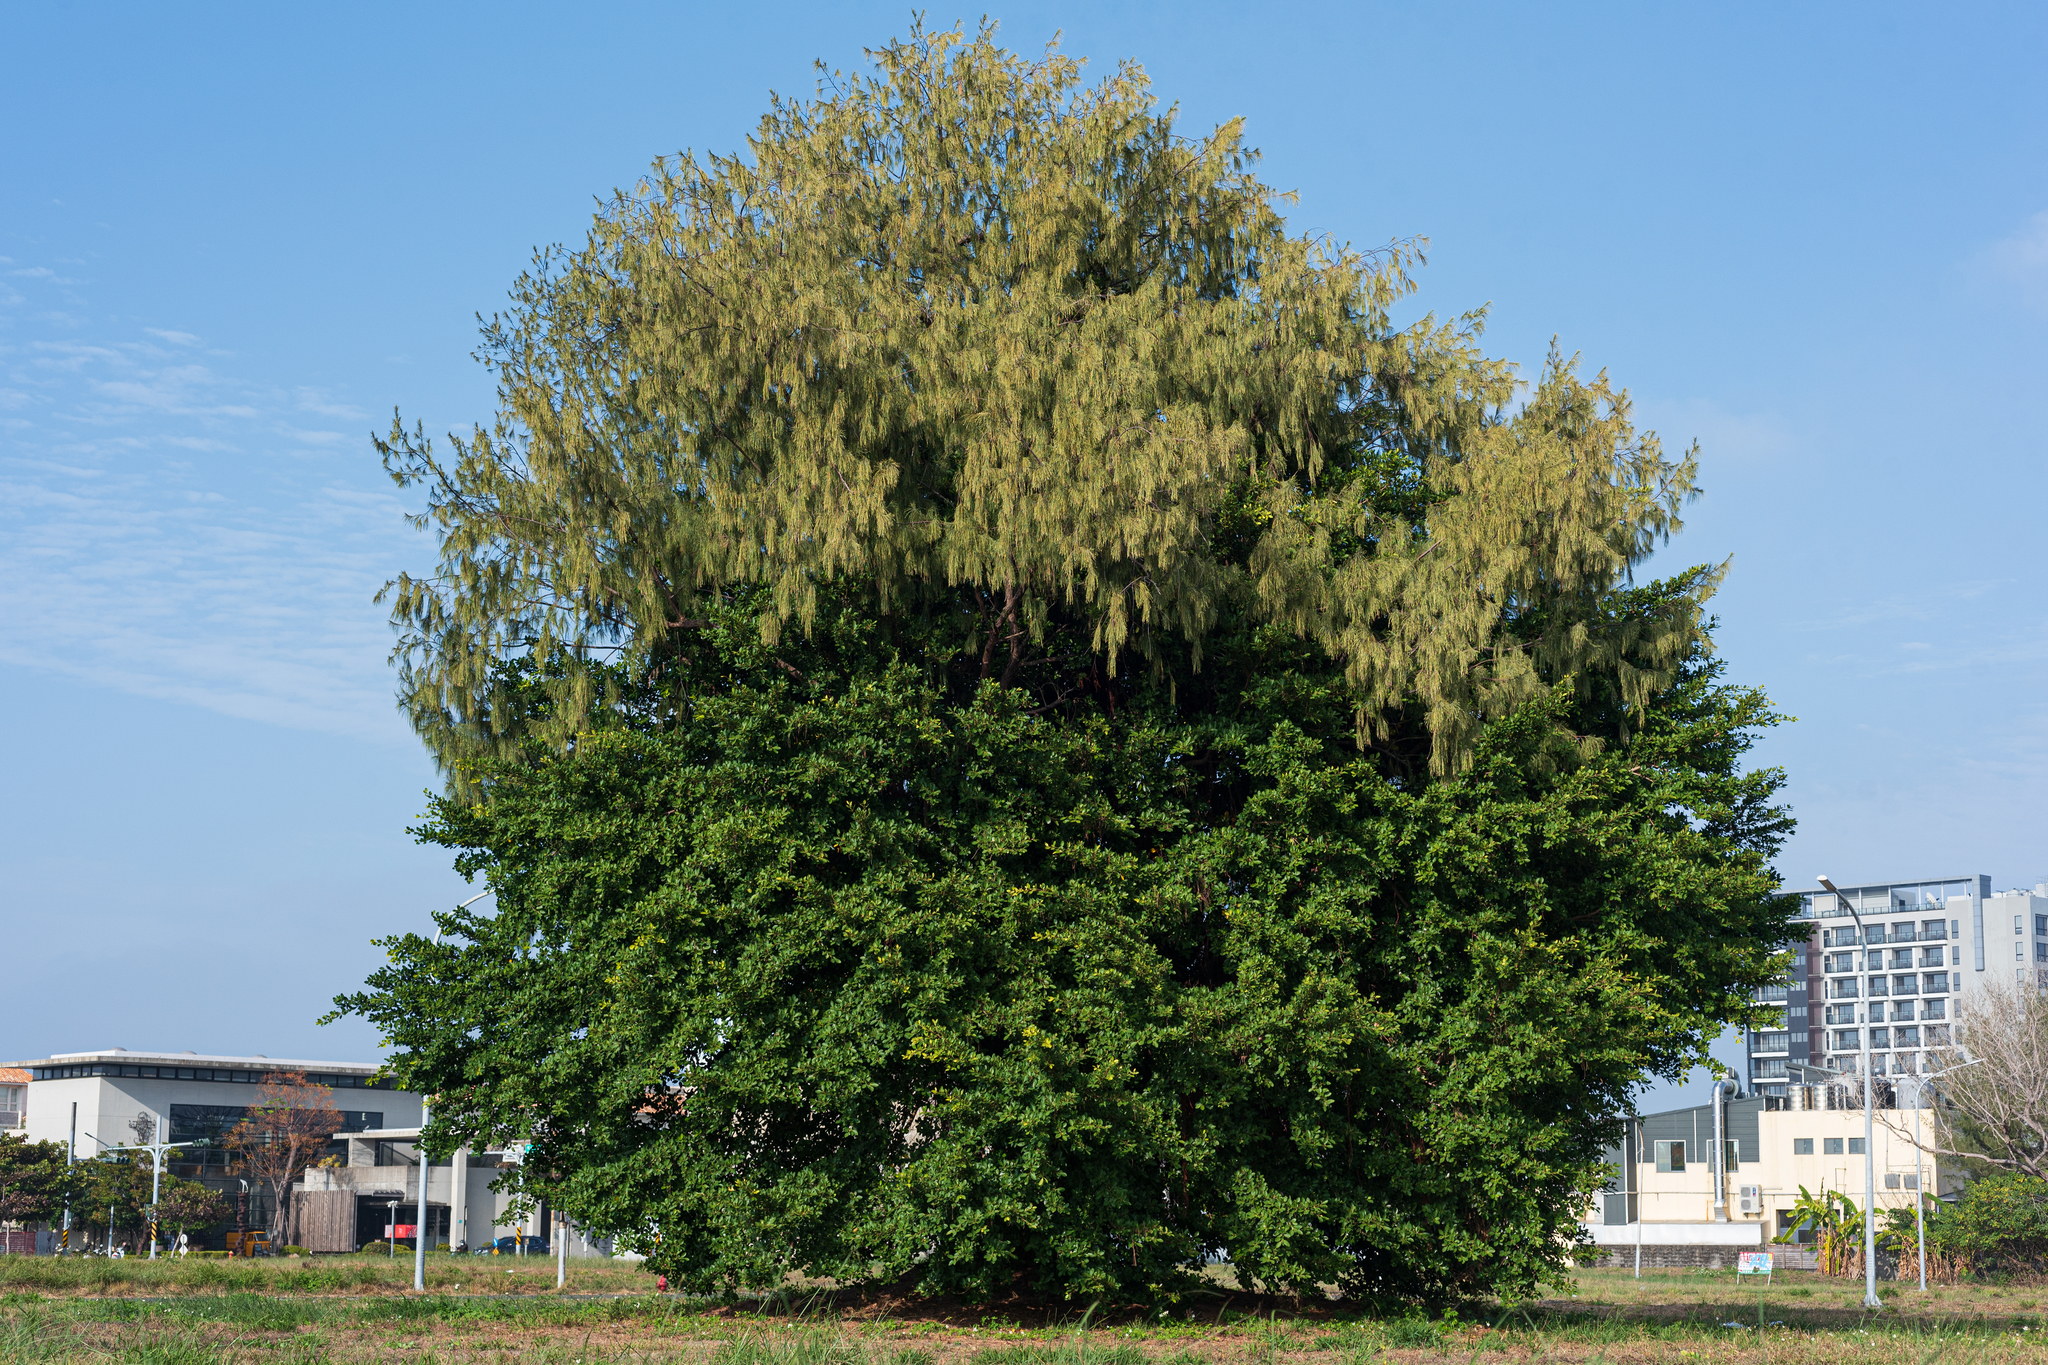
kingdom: Plantae
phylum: Tracheophyta
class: Magnoliopsida
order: Rosales
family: Moraceae
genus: Ficus
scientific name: Ficus microcarpa
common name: Chinese banyan
